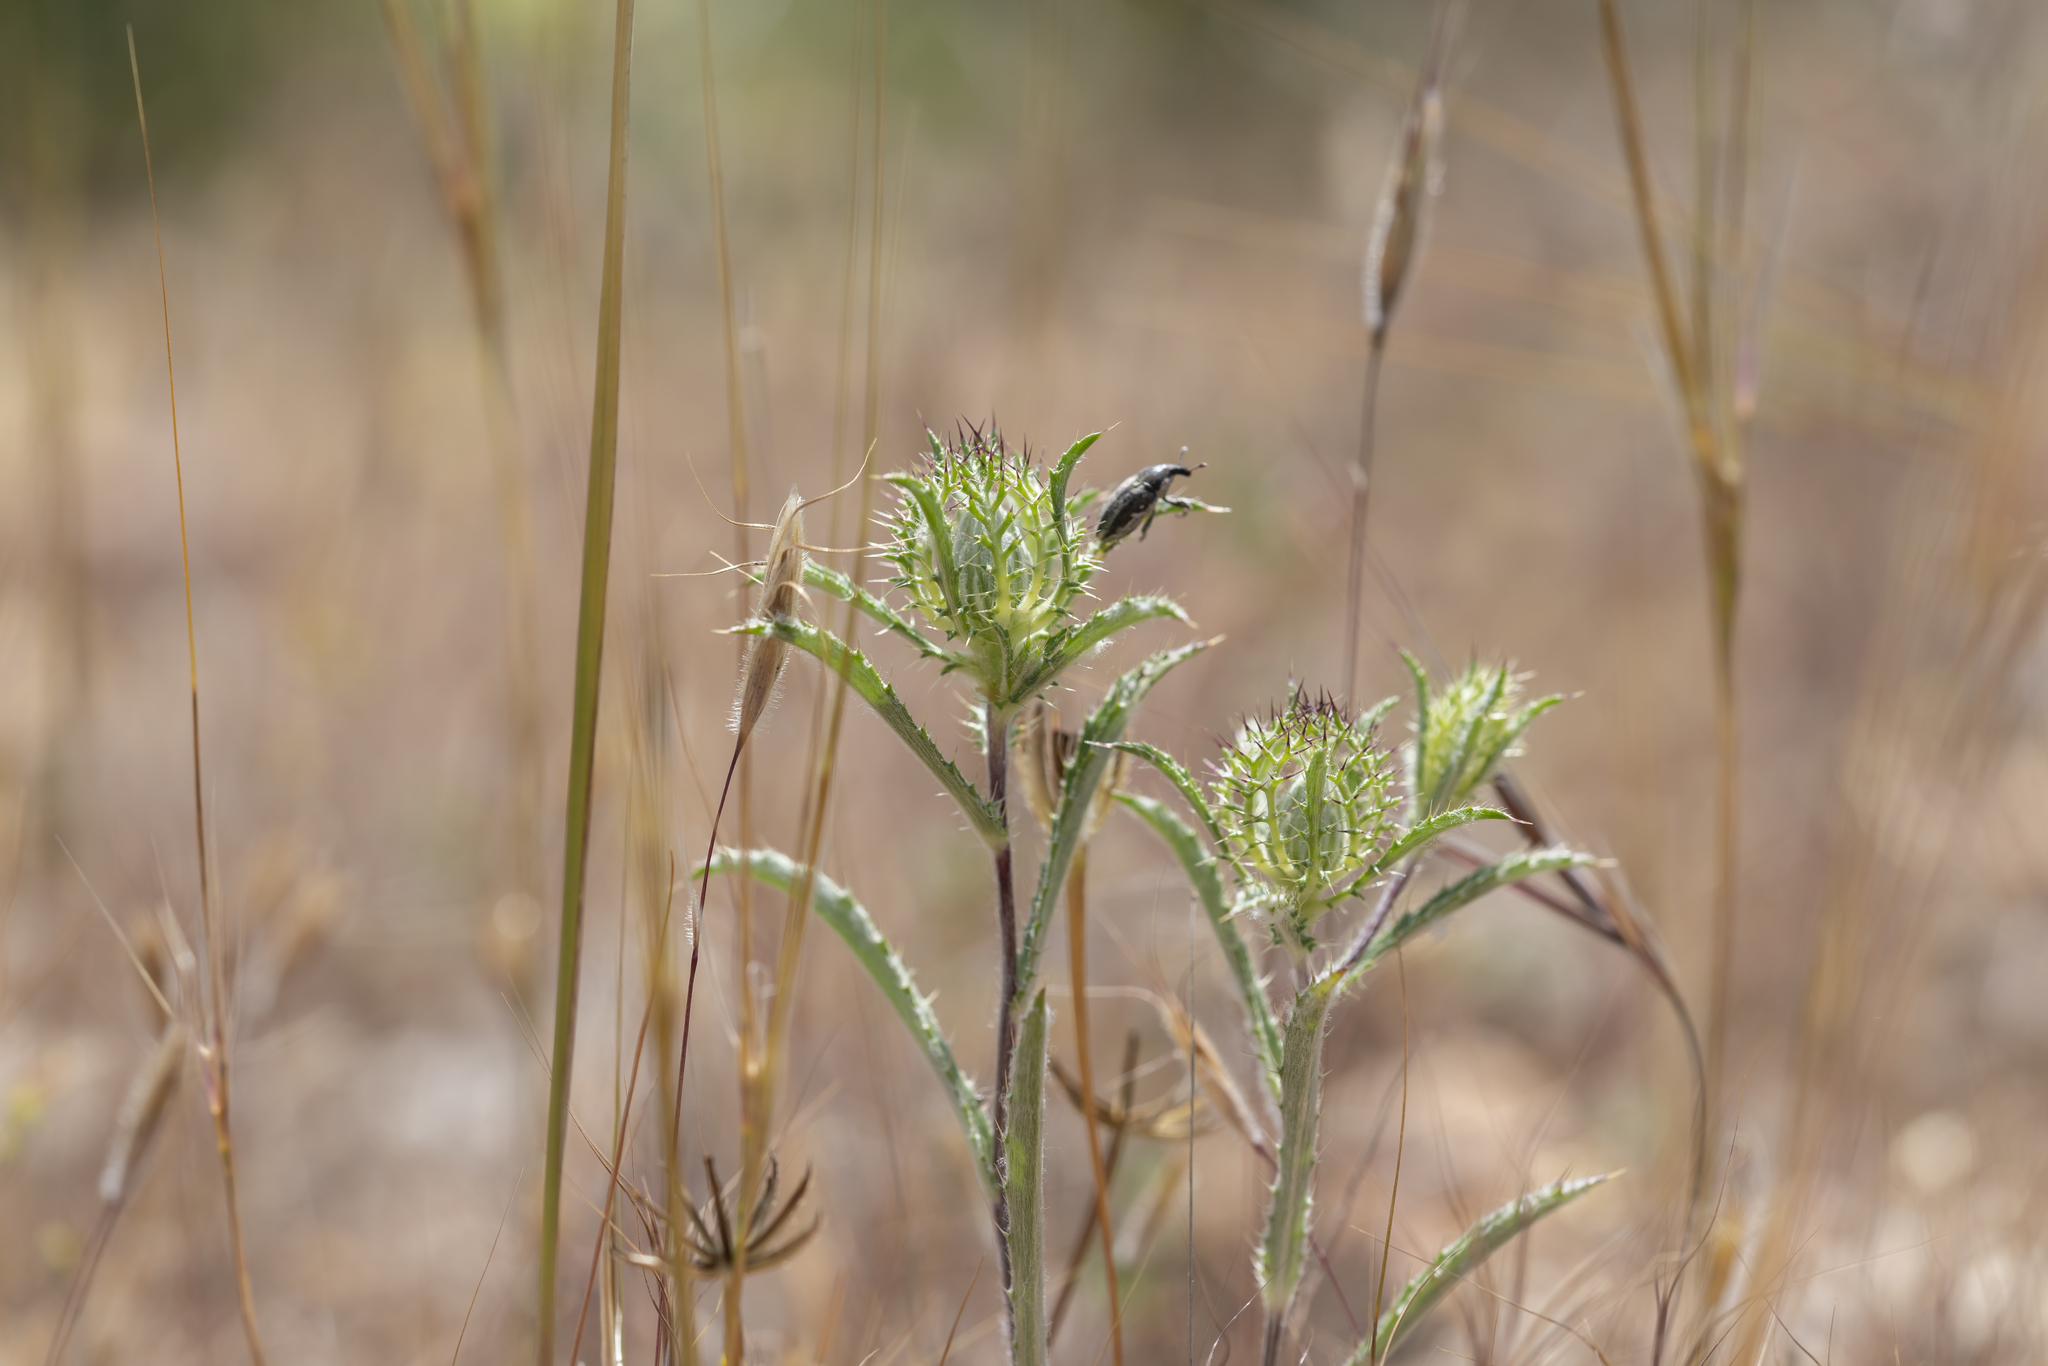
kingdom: Plantae
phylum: Tracheophyta
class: Magnoliopsida
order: Asterales
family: Asteraceae
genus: Atractylis
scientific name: Atractylis cancellata
